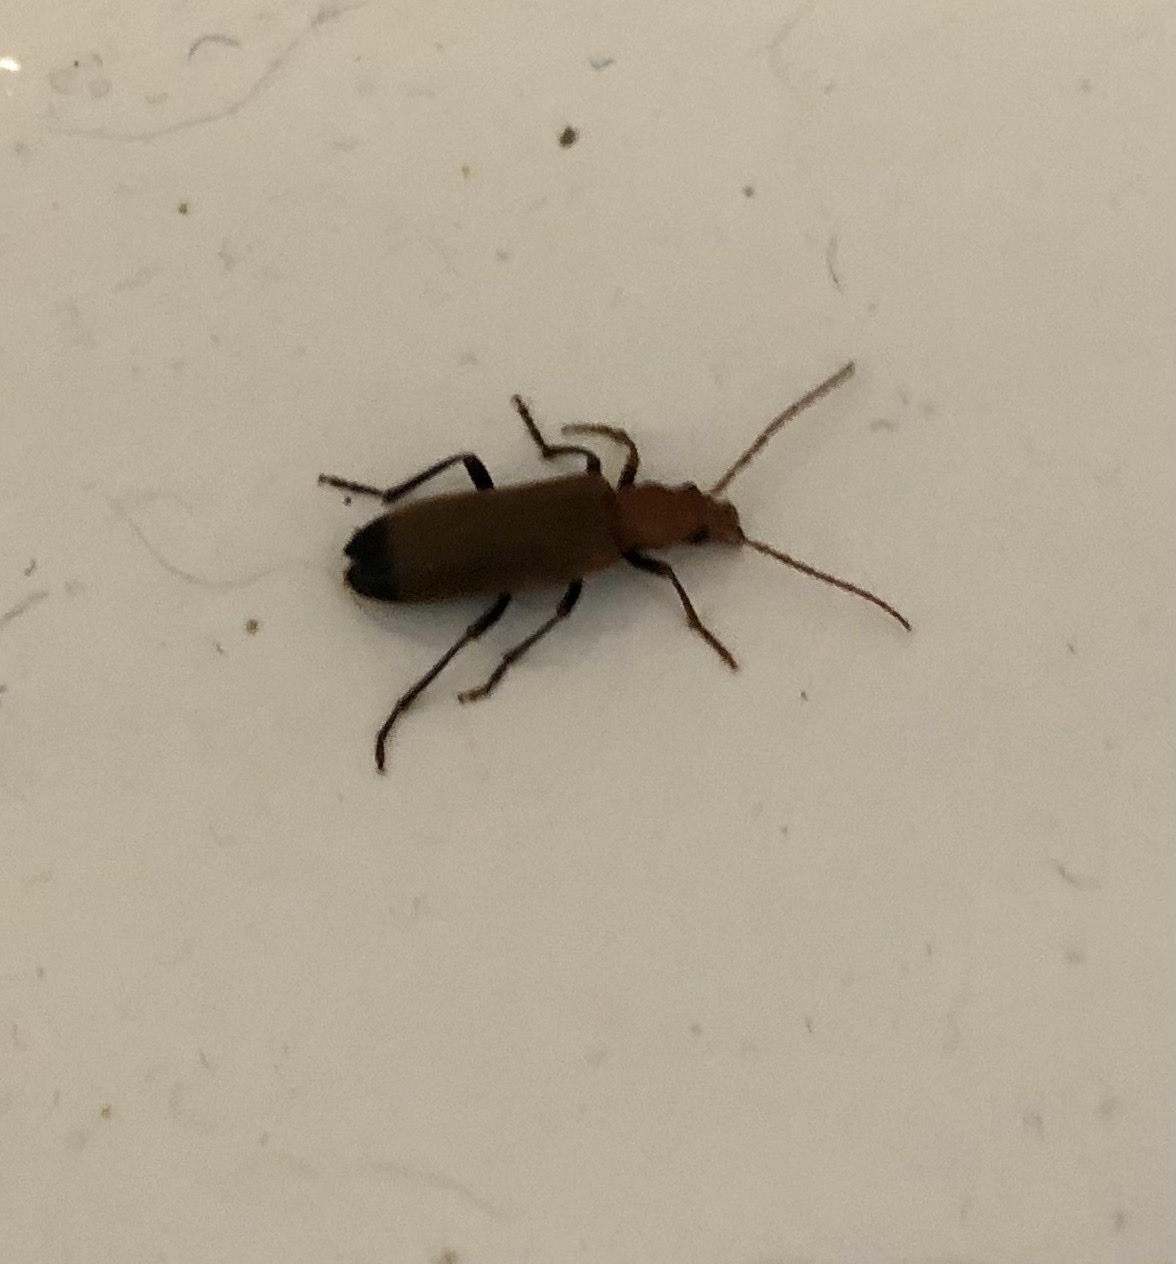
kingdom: Animalia
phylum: Arthropoda
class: Insecta
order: Coleoptera
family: Oedemeridae
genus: Nacerdes
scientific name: Nacerdes melanura
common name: Wharf borer
